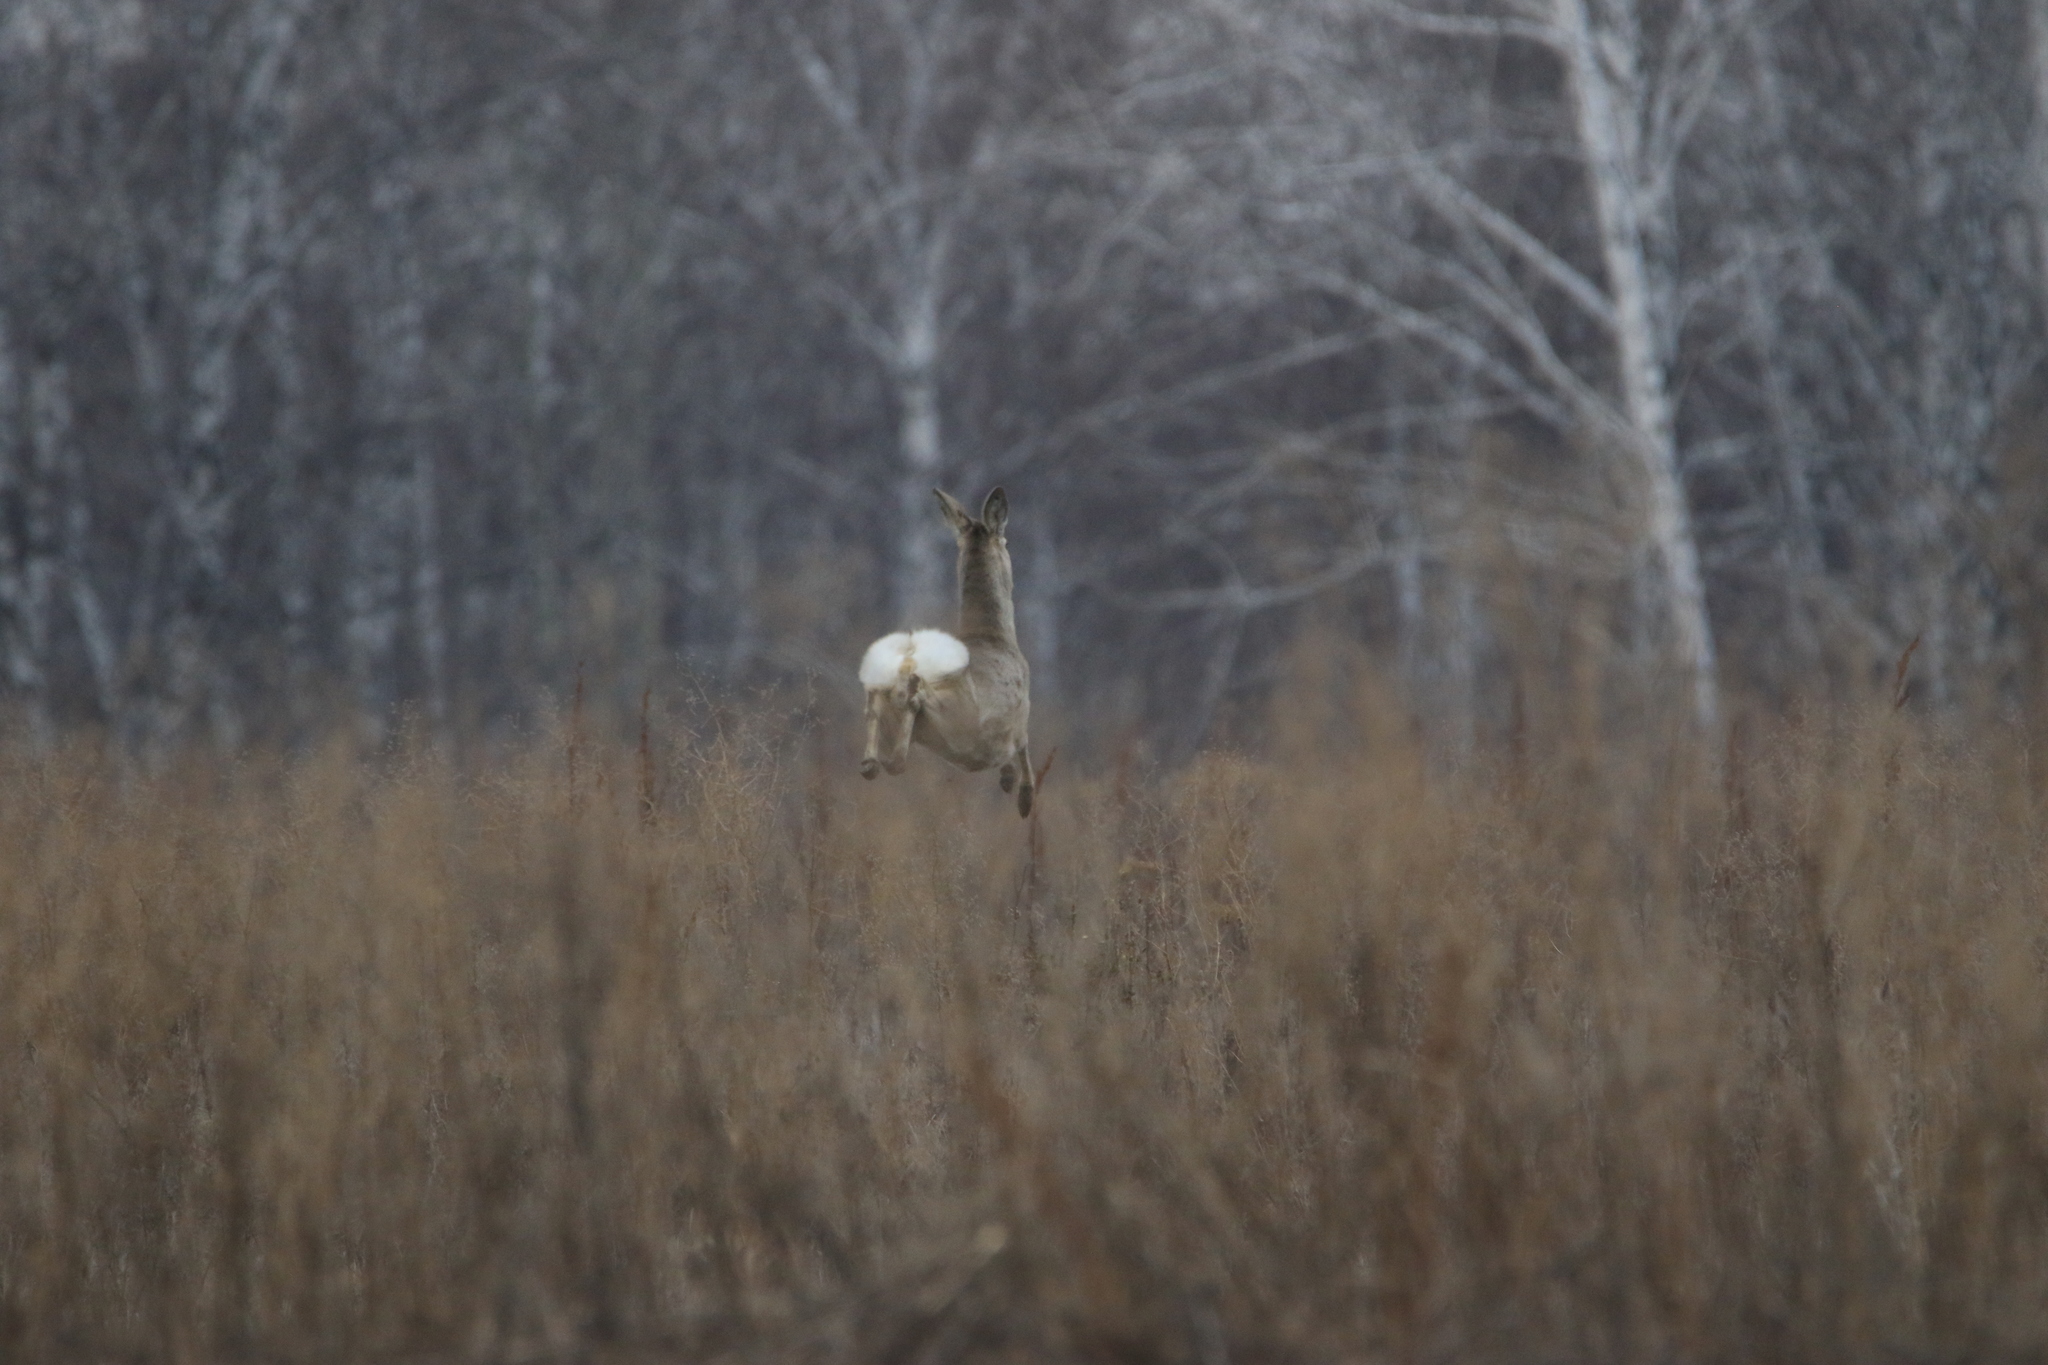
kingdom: Animalia
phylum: Chordata
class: Mammalia
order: Artiodactyla
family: Cervidae
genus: Capreolus
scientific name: Capreolus pygargus
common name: Siberian roe
